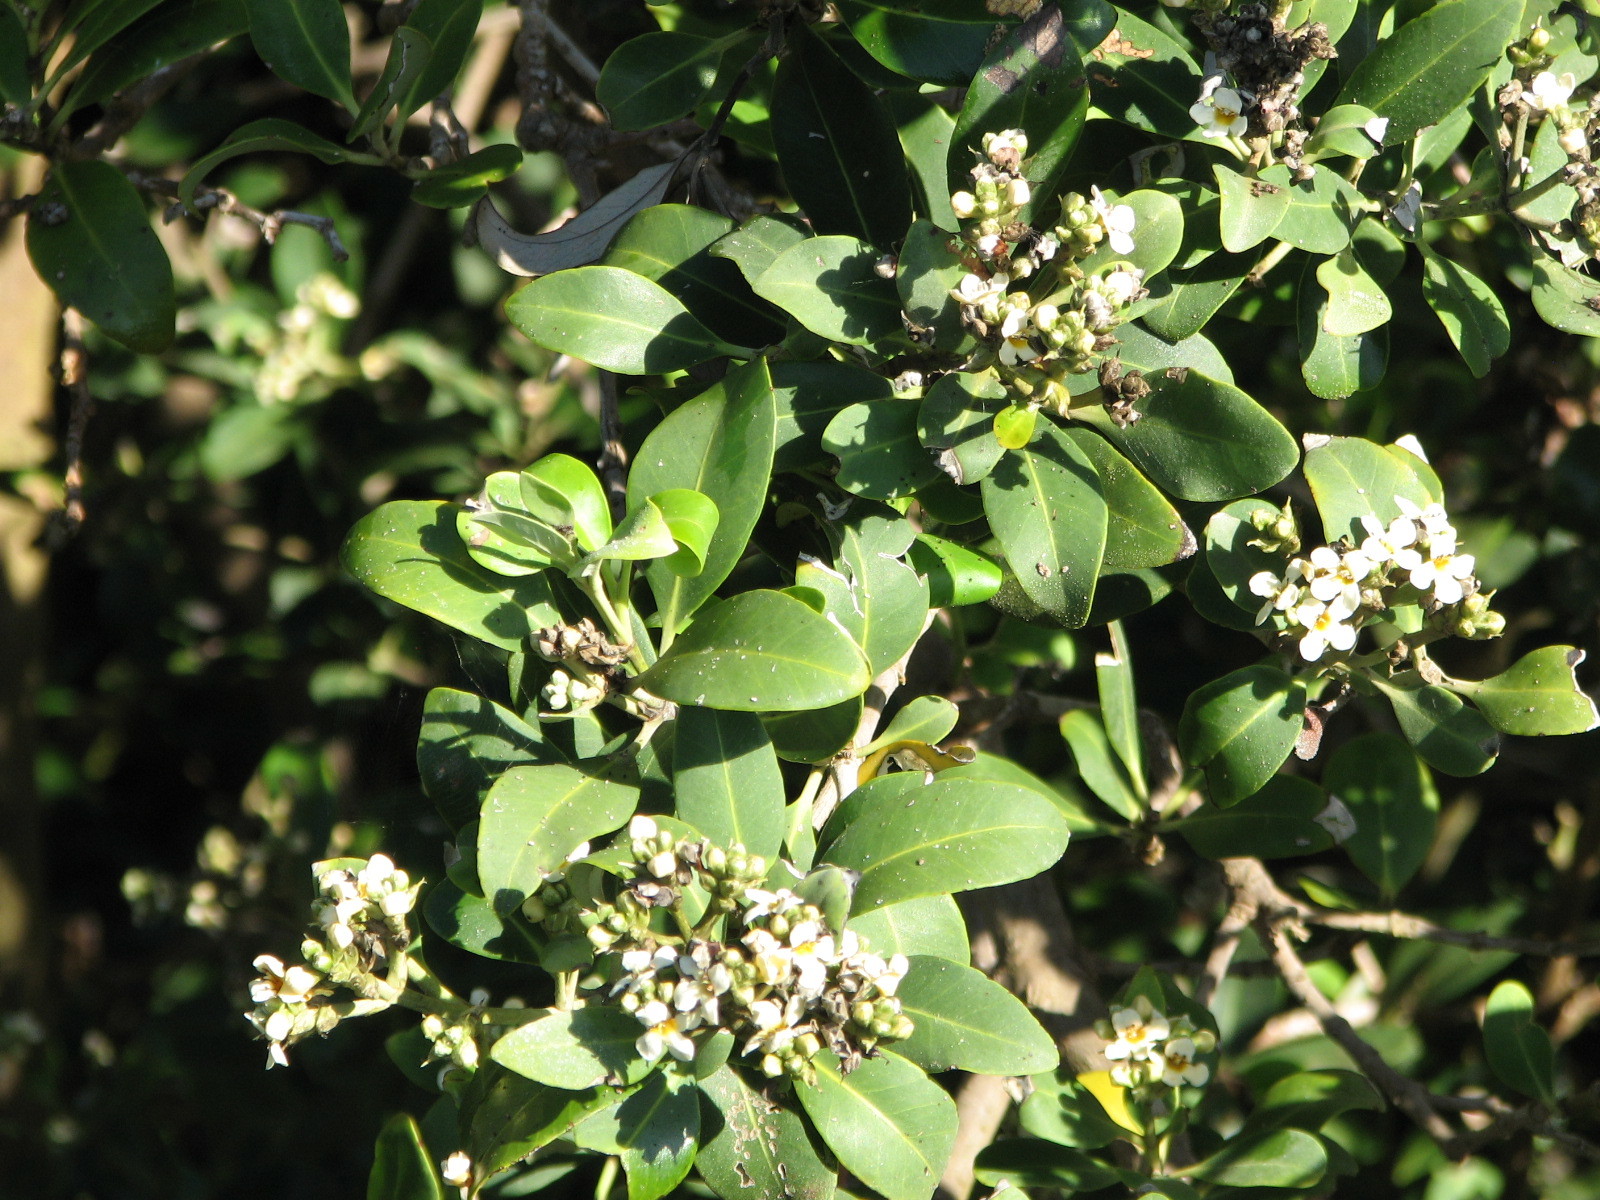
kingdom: Plantae
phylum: Tracheophyta
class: Magnoliopsida
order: Lamiales
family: Acanthaceae
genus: Avicennia
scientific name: Avicennia germinans
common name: Black mangrove
